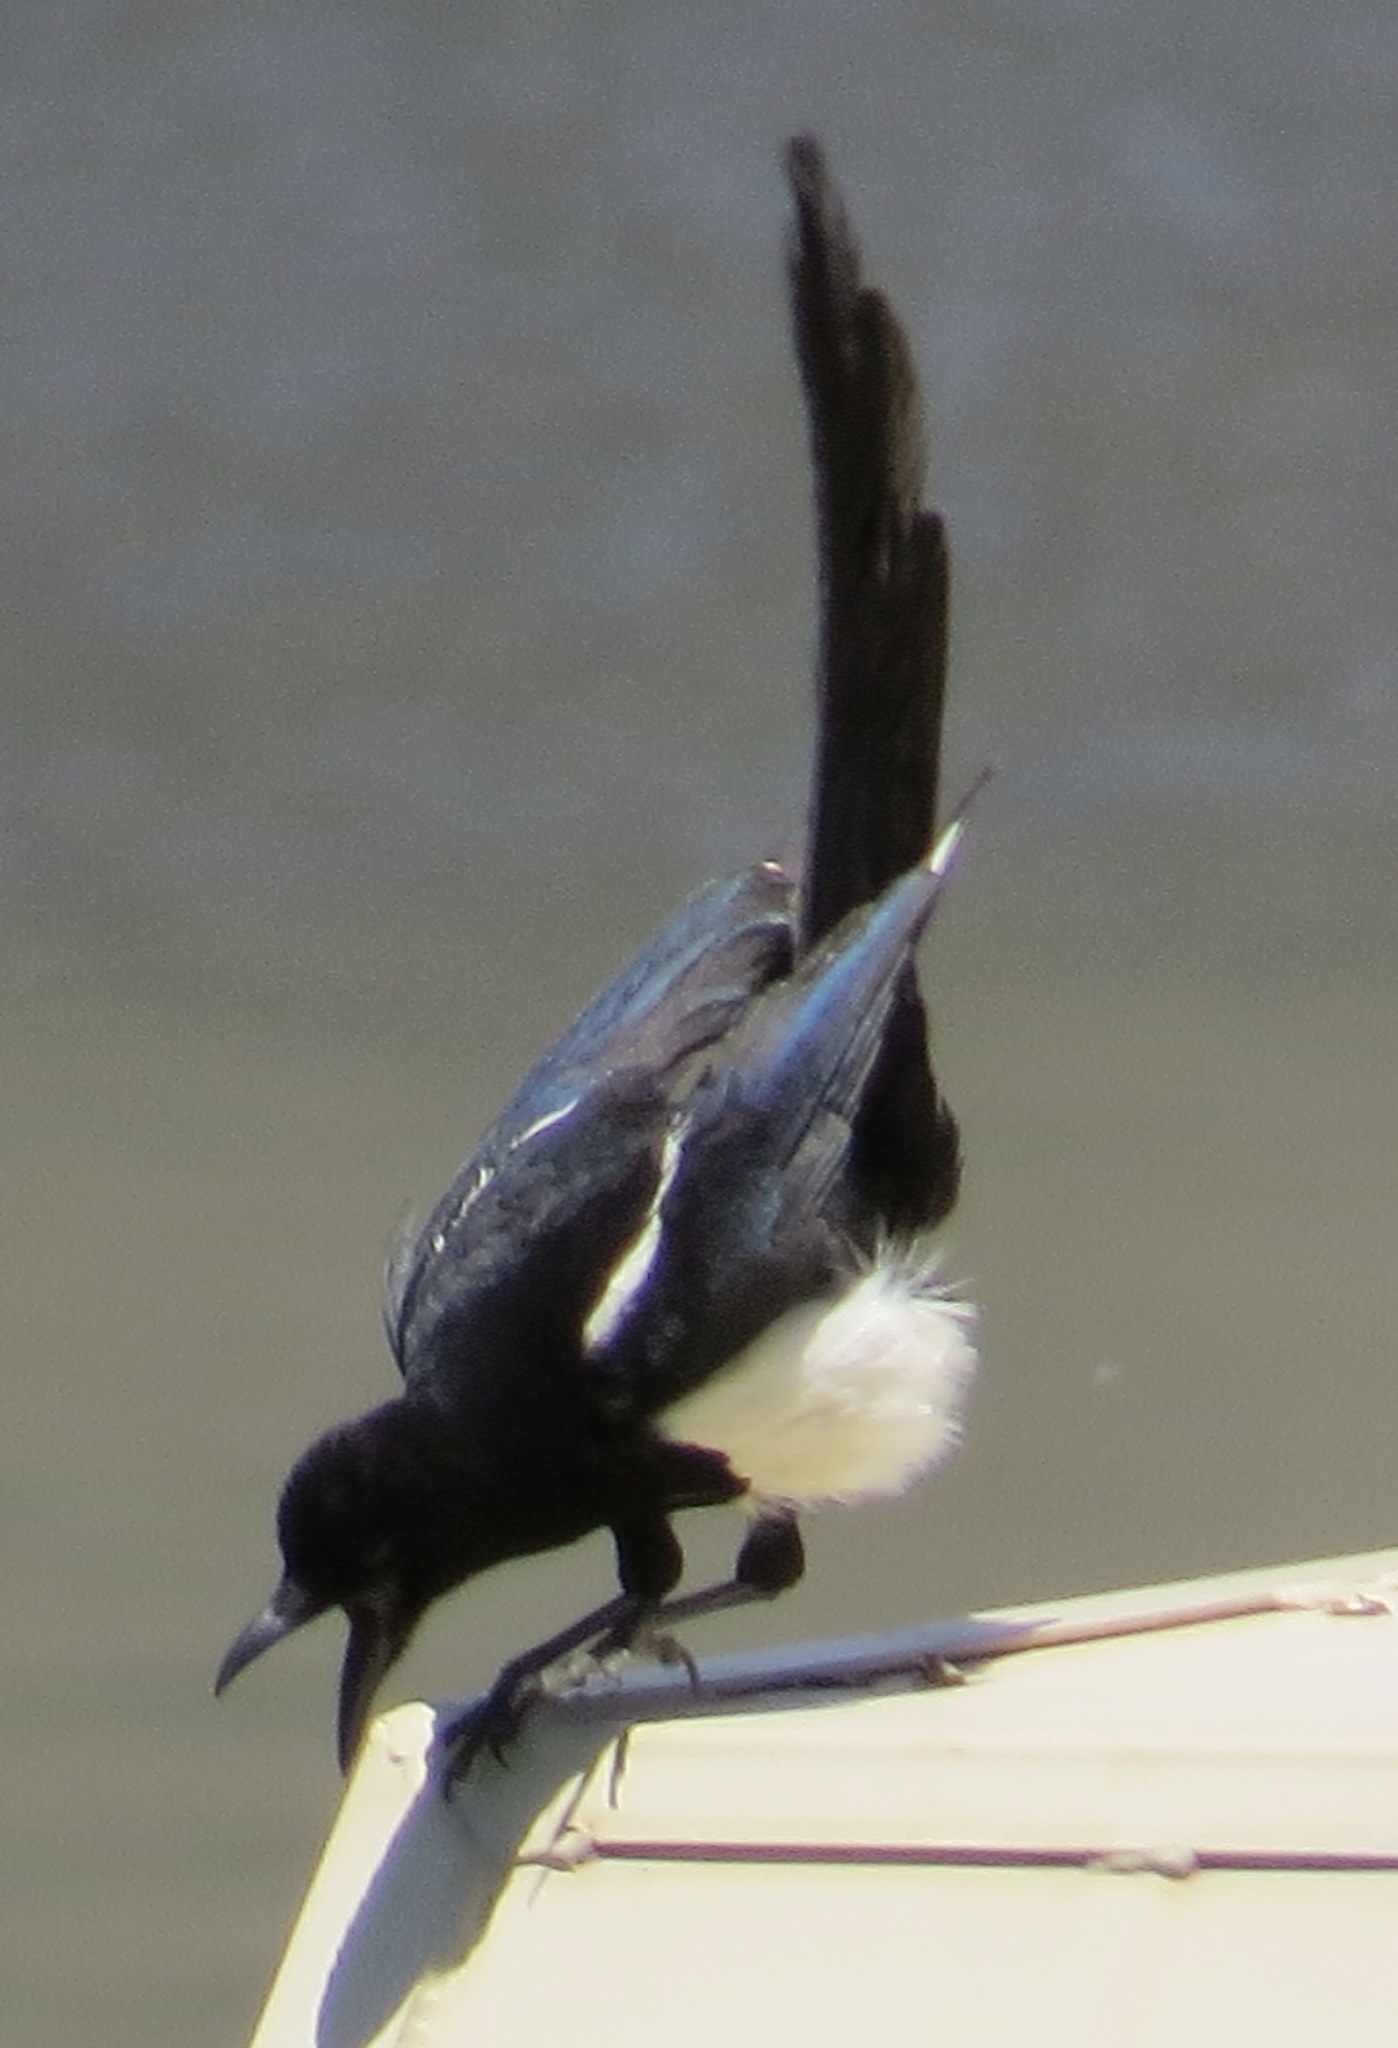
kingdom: Animalia
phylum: Chordata
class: Aves
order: Passeriformes
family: Corvidae
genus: Pica
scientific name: Pica hudsonia
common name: Black-billed magpie
